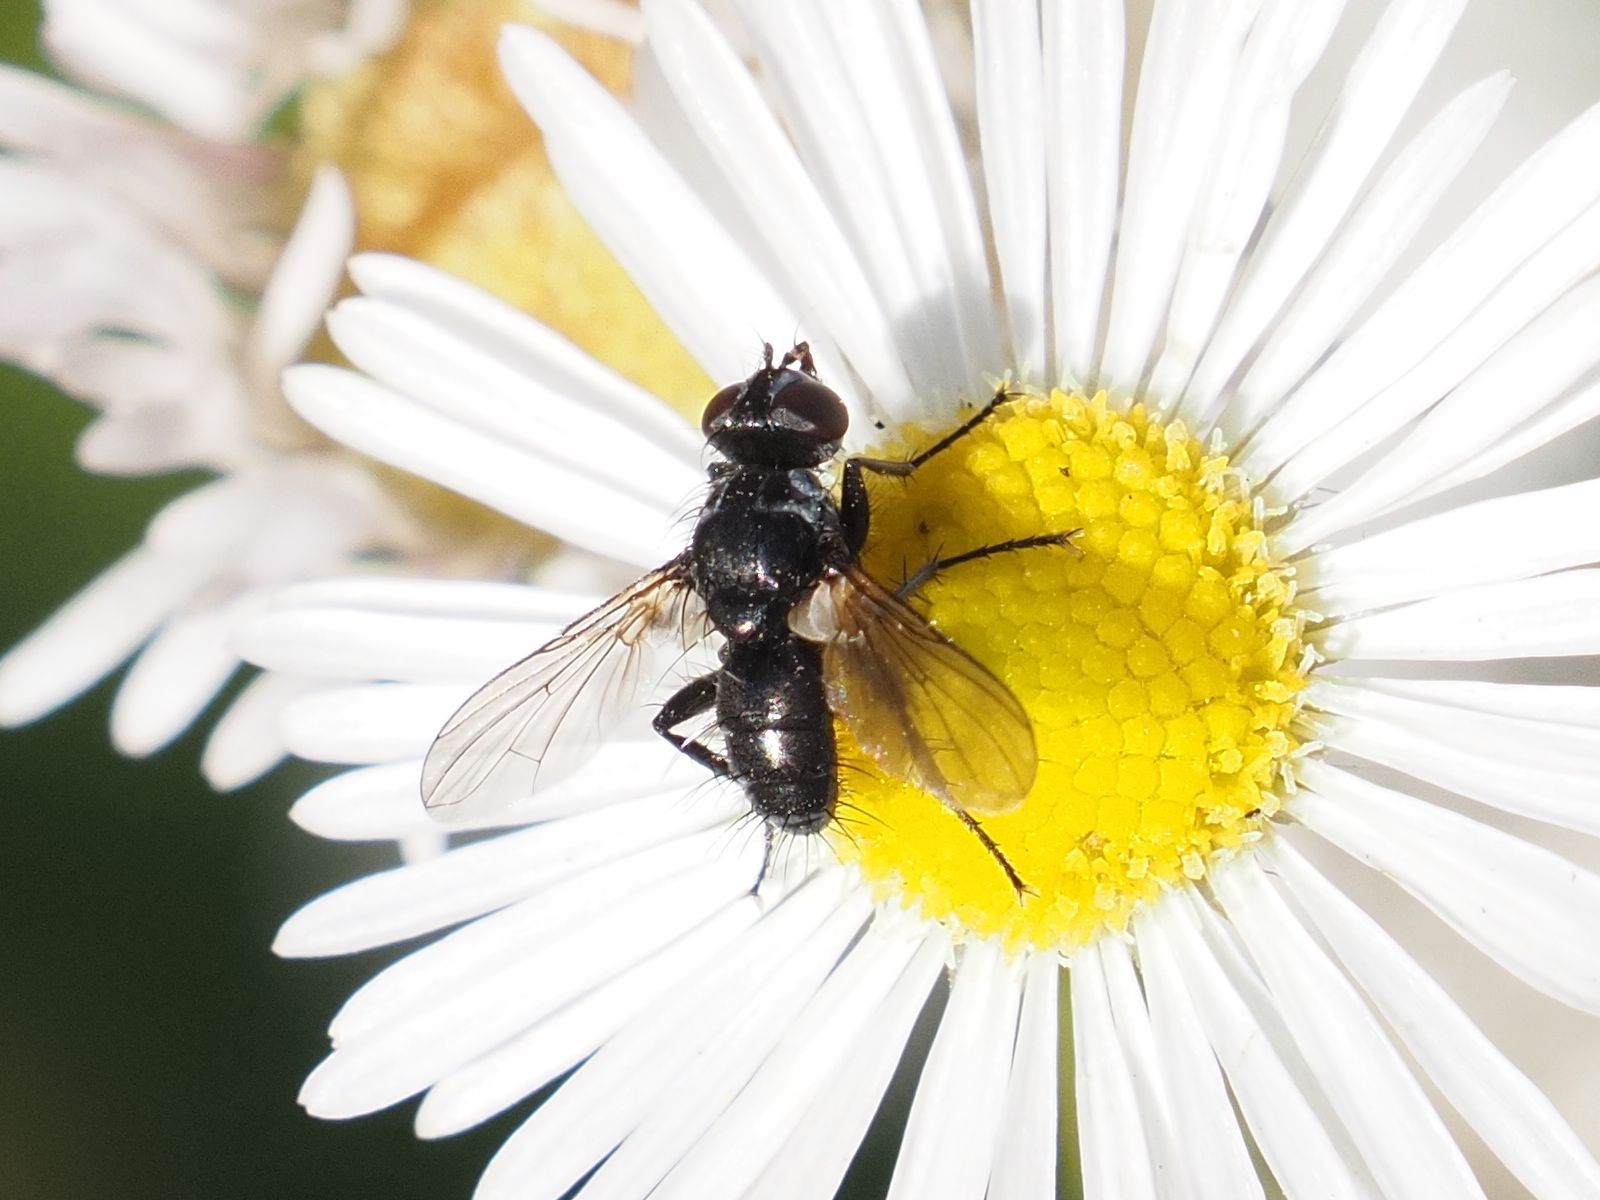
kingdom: Animalia
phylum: Arthropoda
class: Insecta
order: Diptera
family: Tachinidae
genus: Phania
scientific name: Phania funesta
